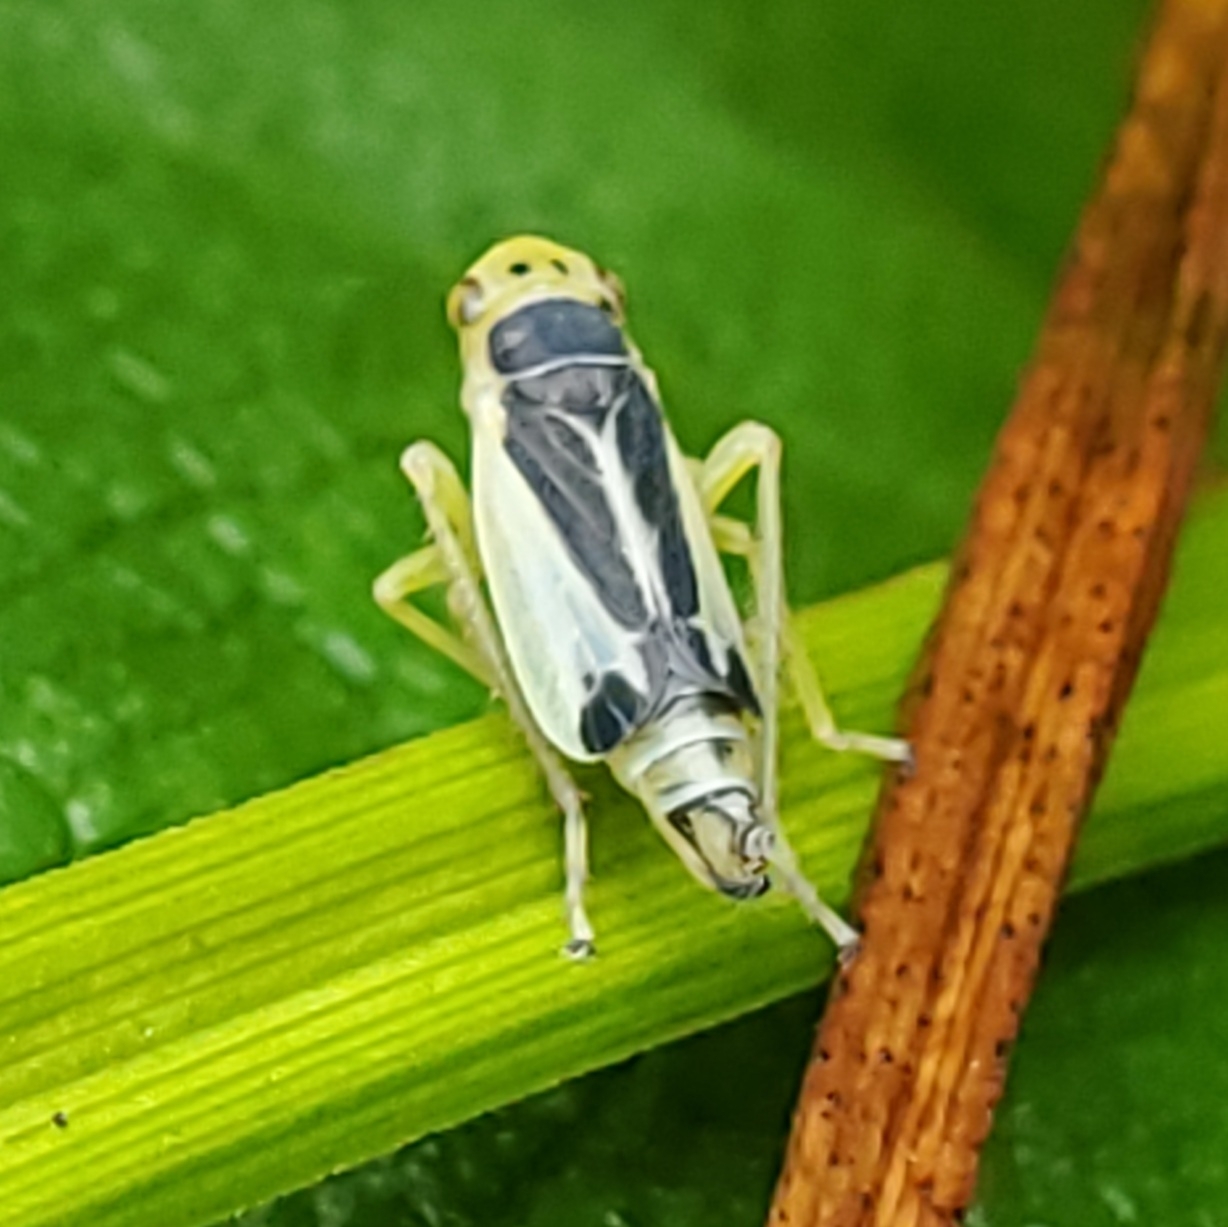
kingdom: Animalia
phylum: Arthropoda
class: Insecta
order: Hemiptera
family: Cicadellidae
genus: Evacanthus
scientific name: Evacanthus bellaustralis
